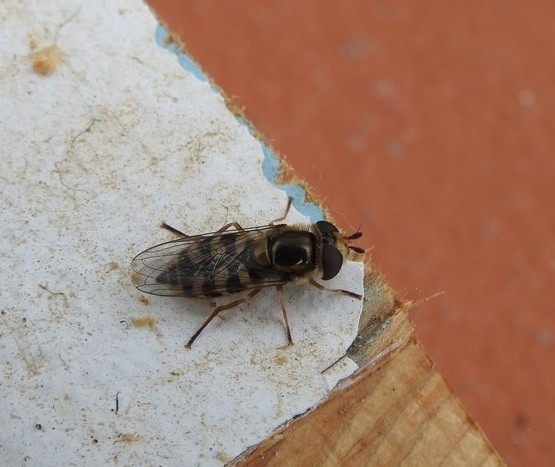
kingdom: Animalia
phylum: Arthropoda
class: Insecta
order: Diptera
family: Syrphidae
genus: Eupeodes
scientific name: Eupeodes corollae
